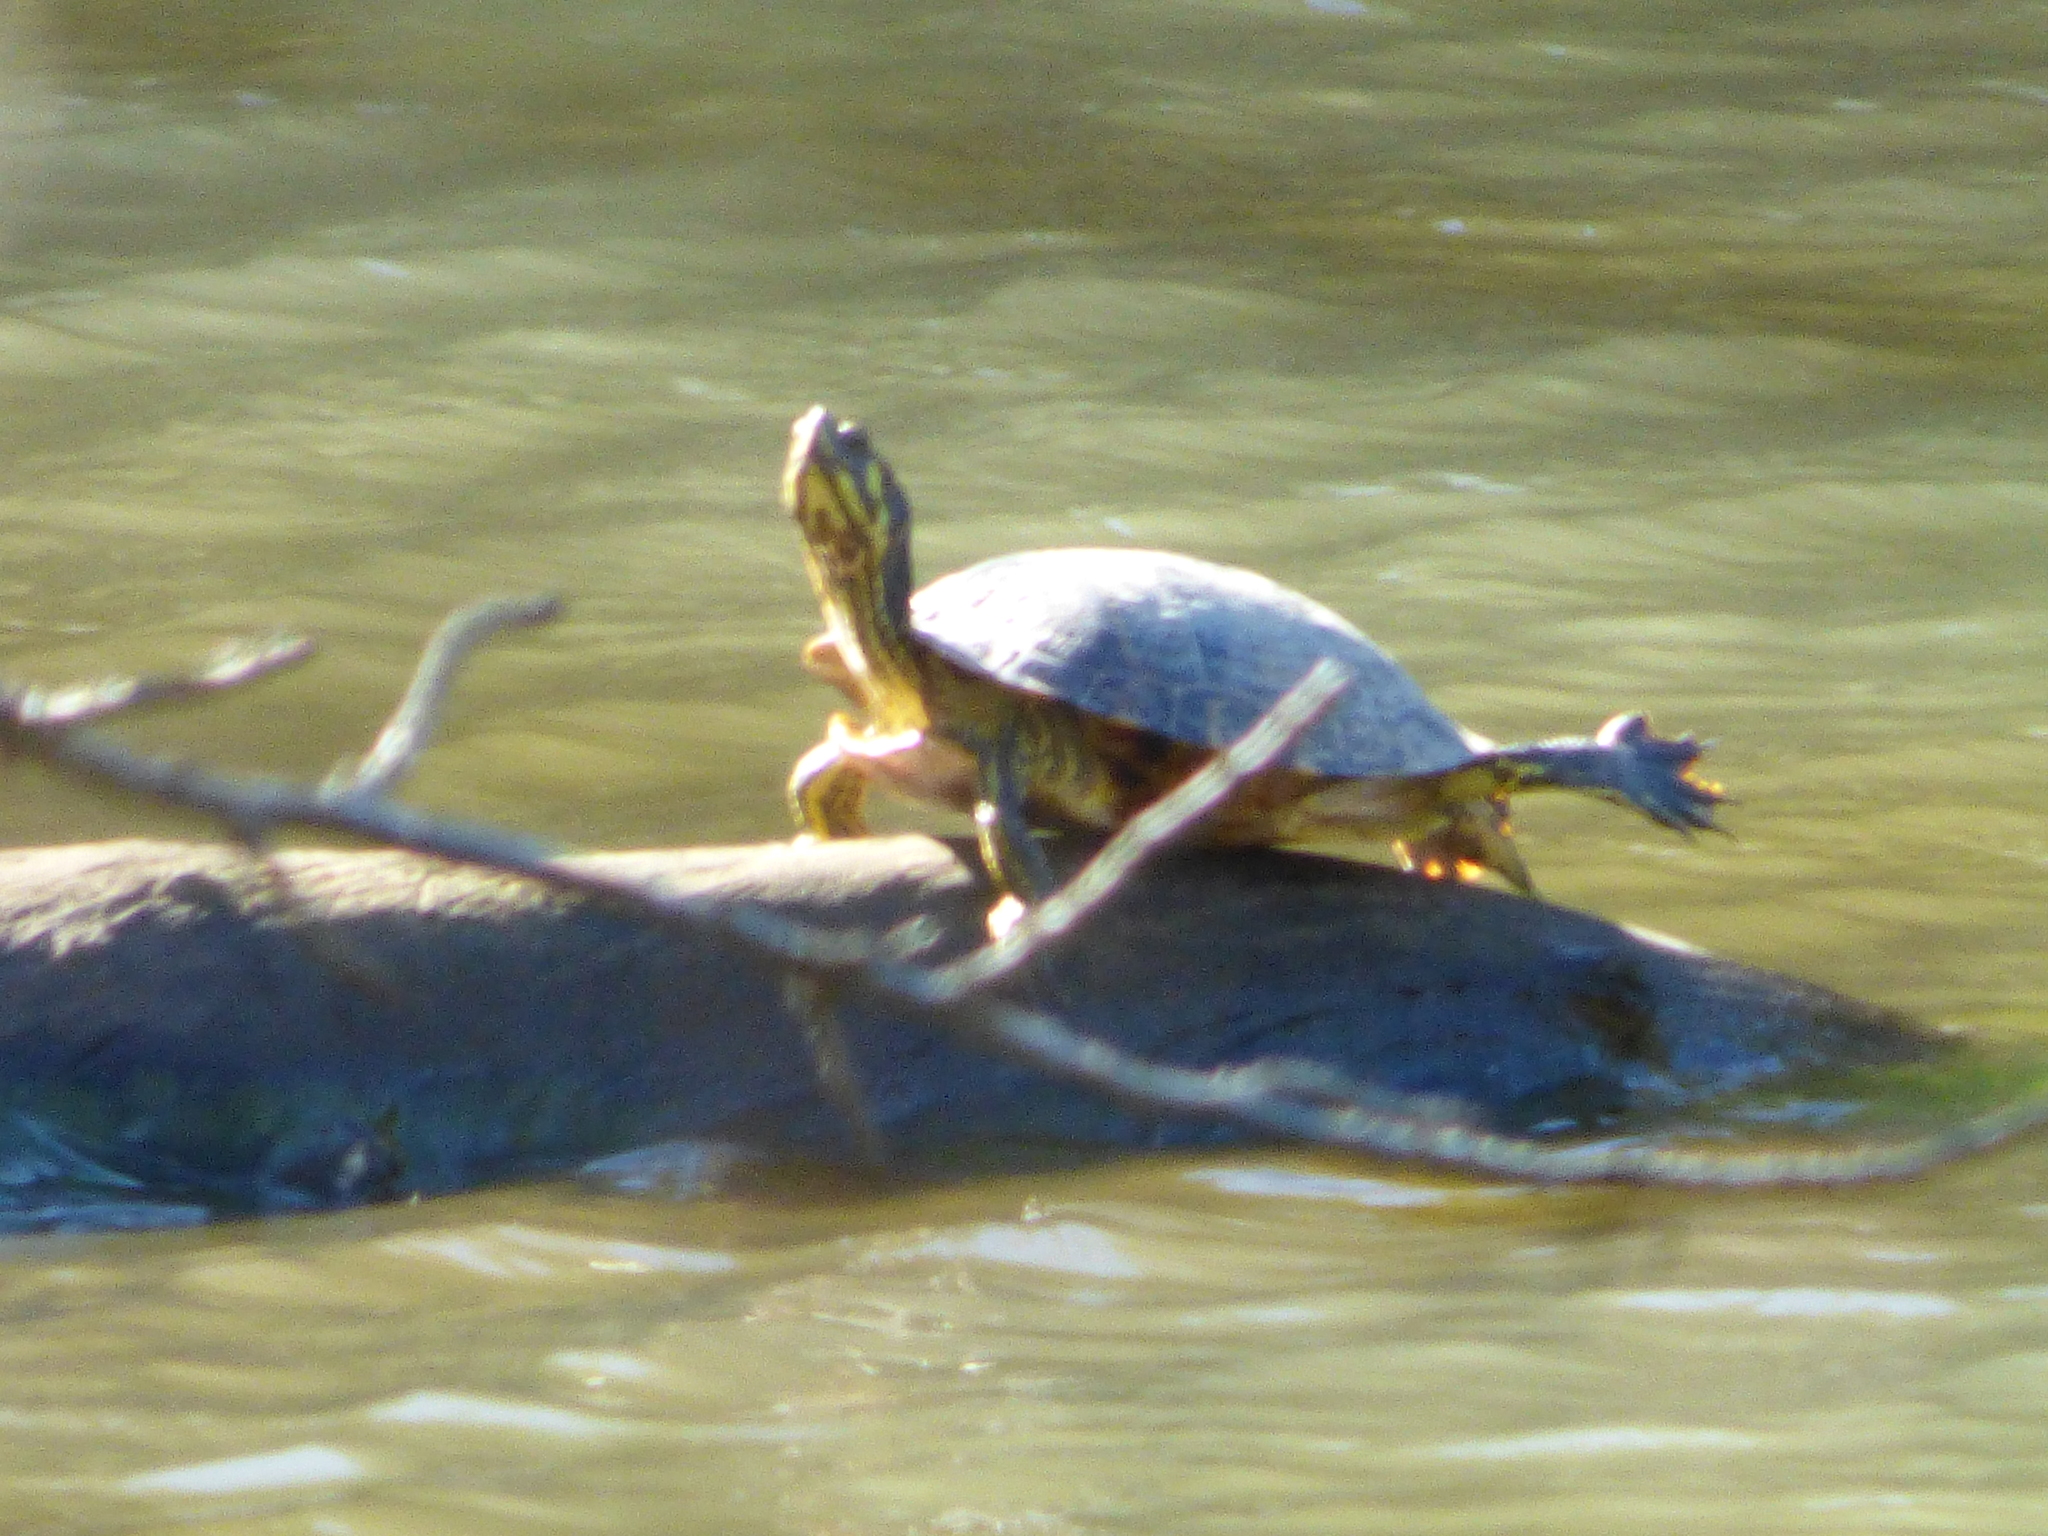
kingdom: Animalia
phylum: Chordata
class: Testudines
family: Emydidae
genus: Trachemys
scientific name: Trachemys scripta
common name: Slider
